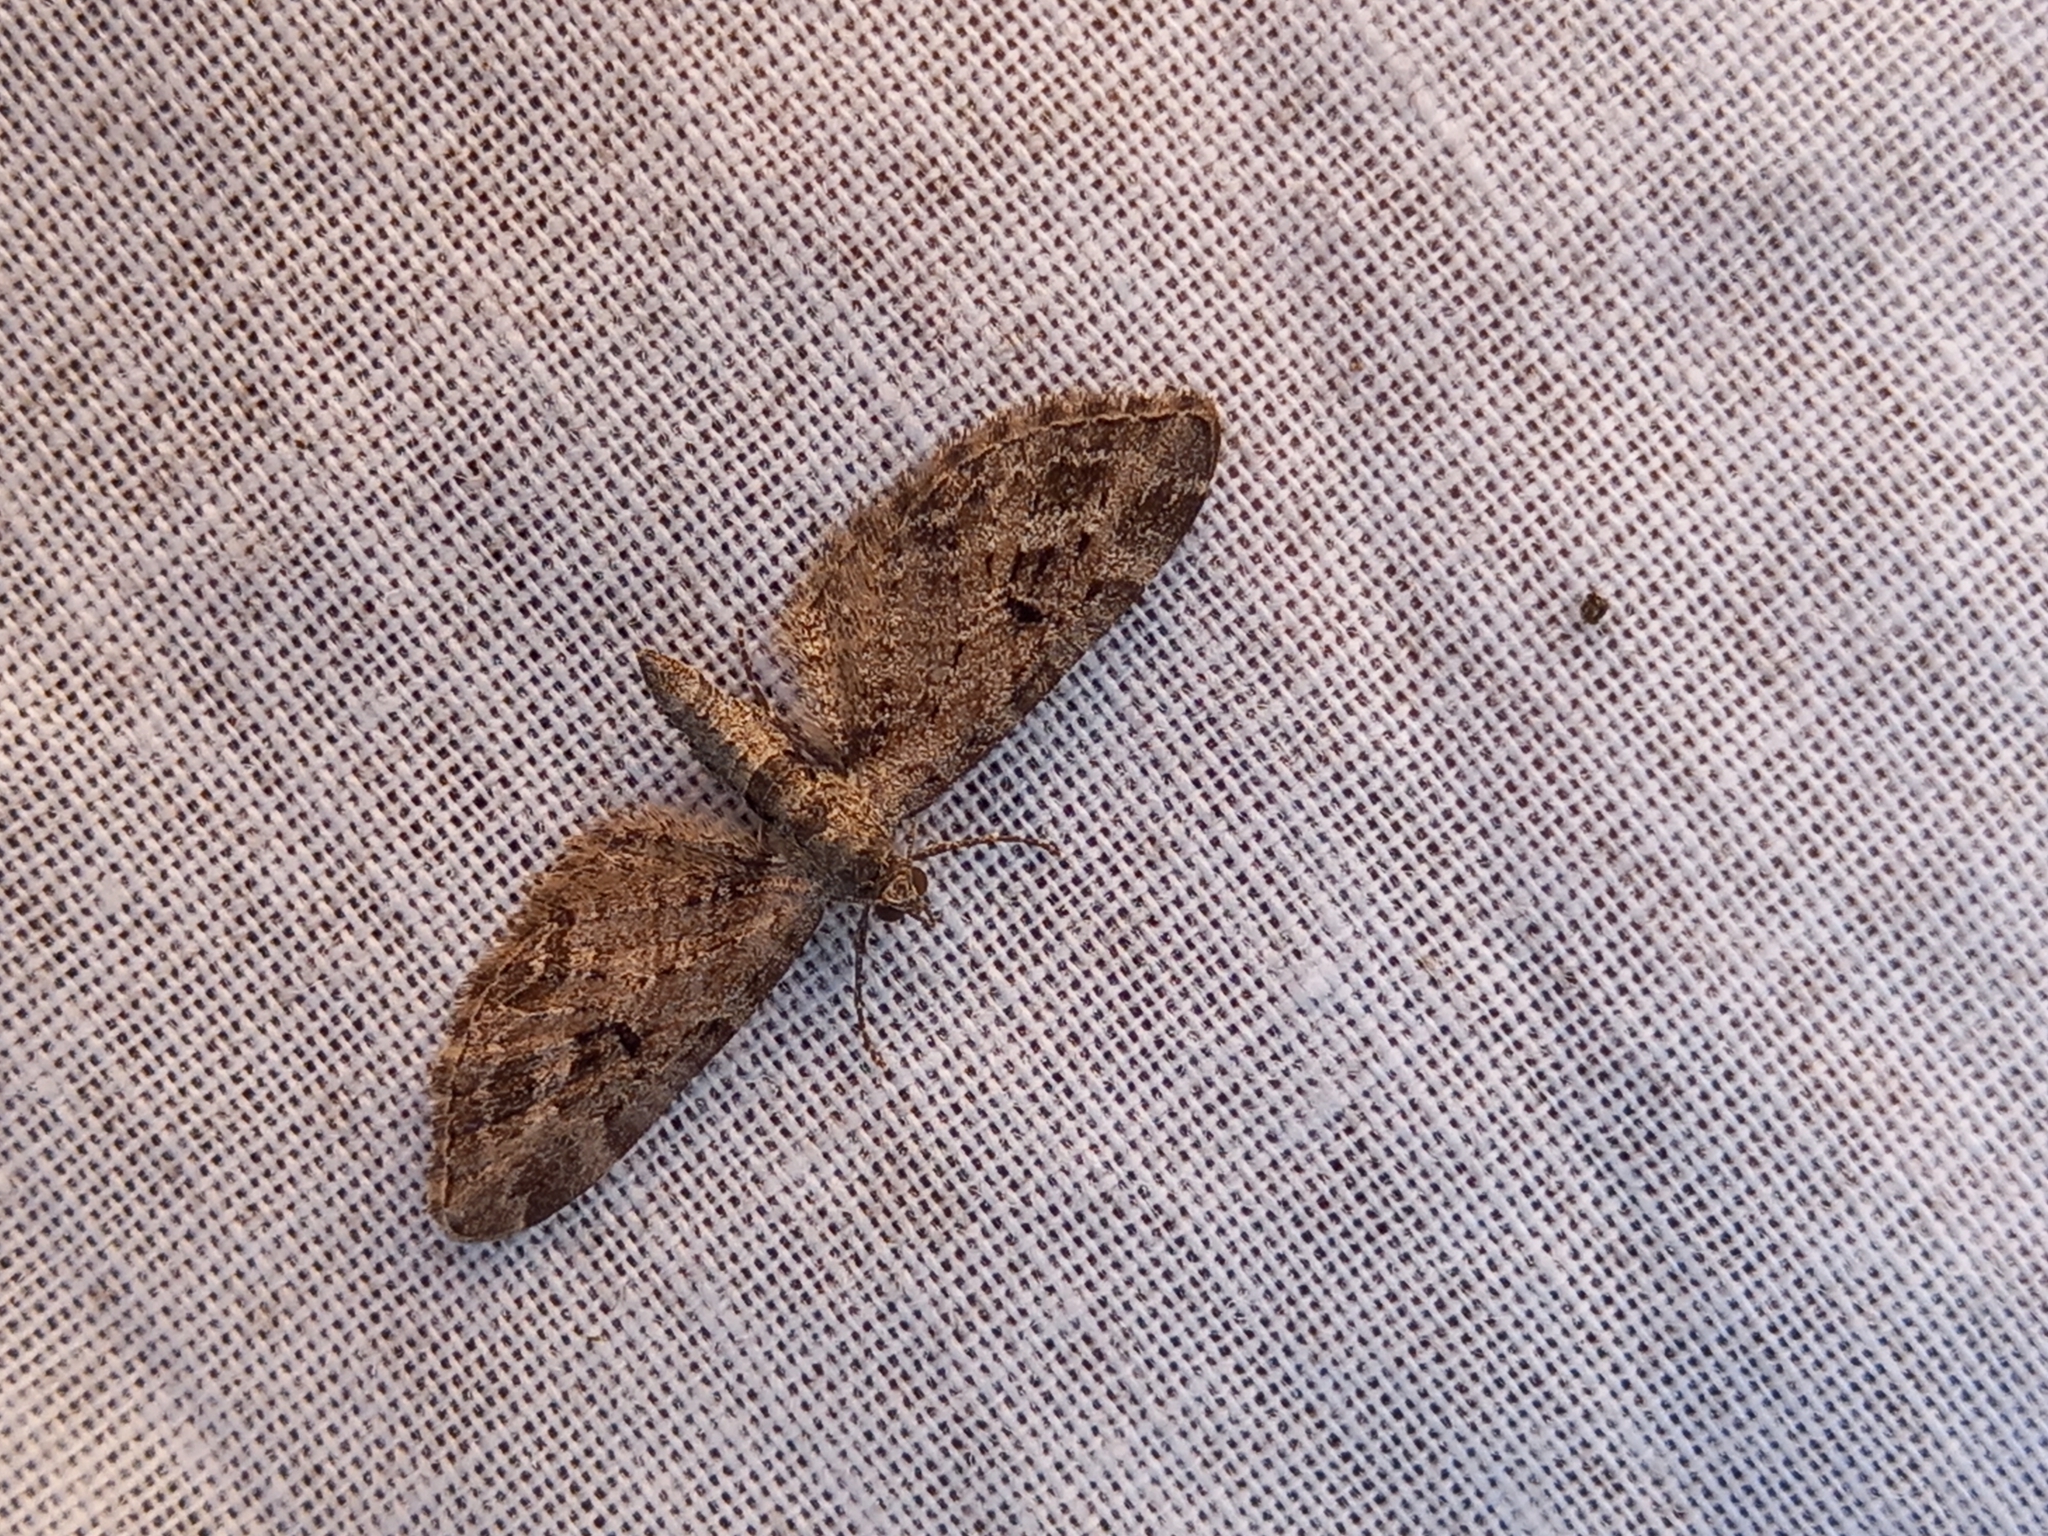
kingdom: Animalia
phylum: Arthropoda
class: Insecta
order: Lepidoptera
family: Geometridae
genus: Eupithecia
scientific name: Eupithecia exiguata
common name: Mottled pug
